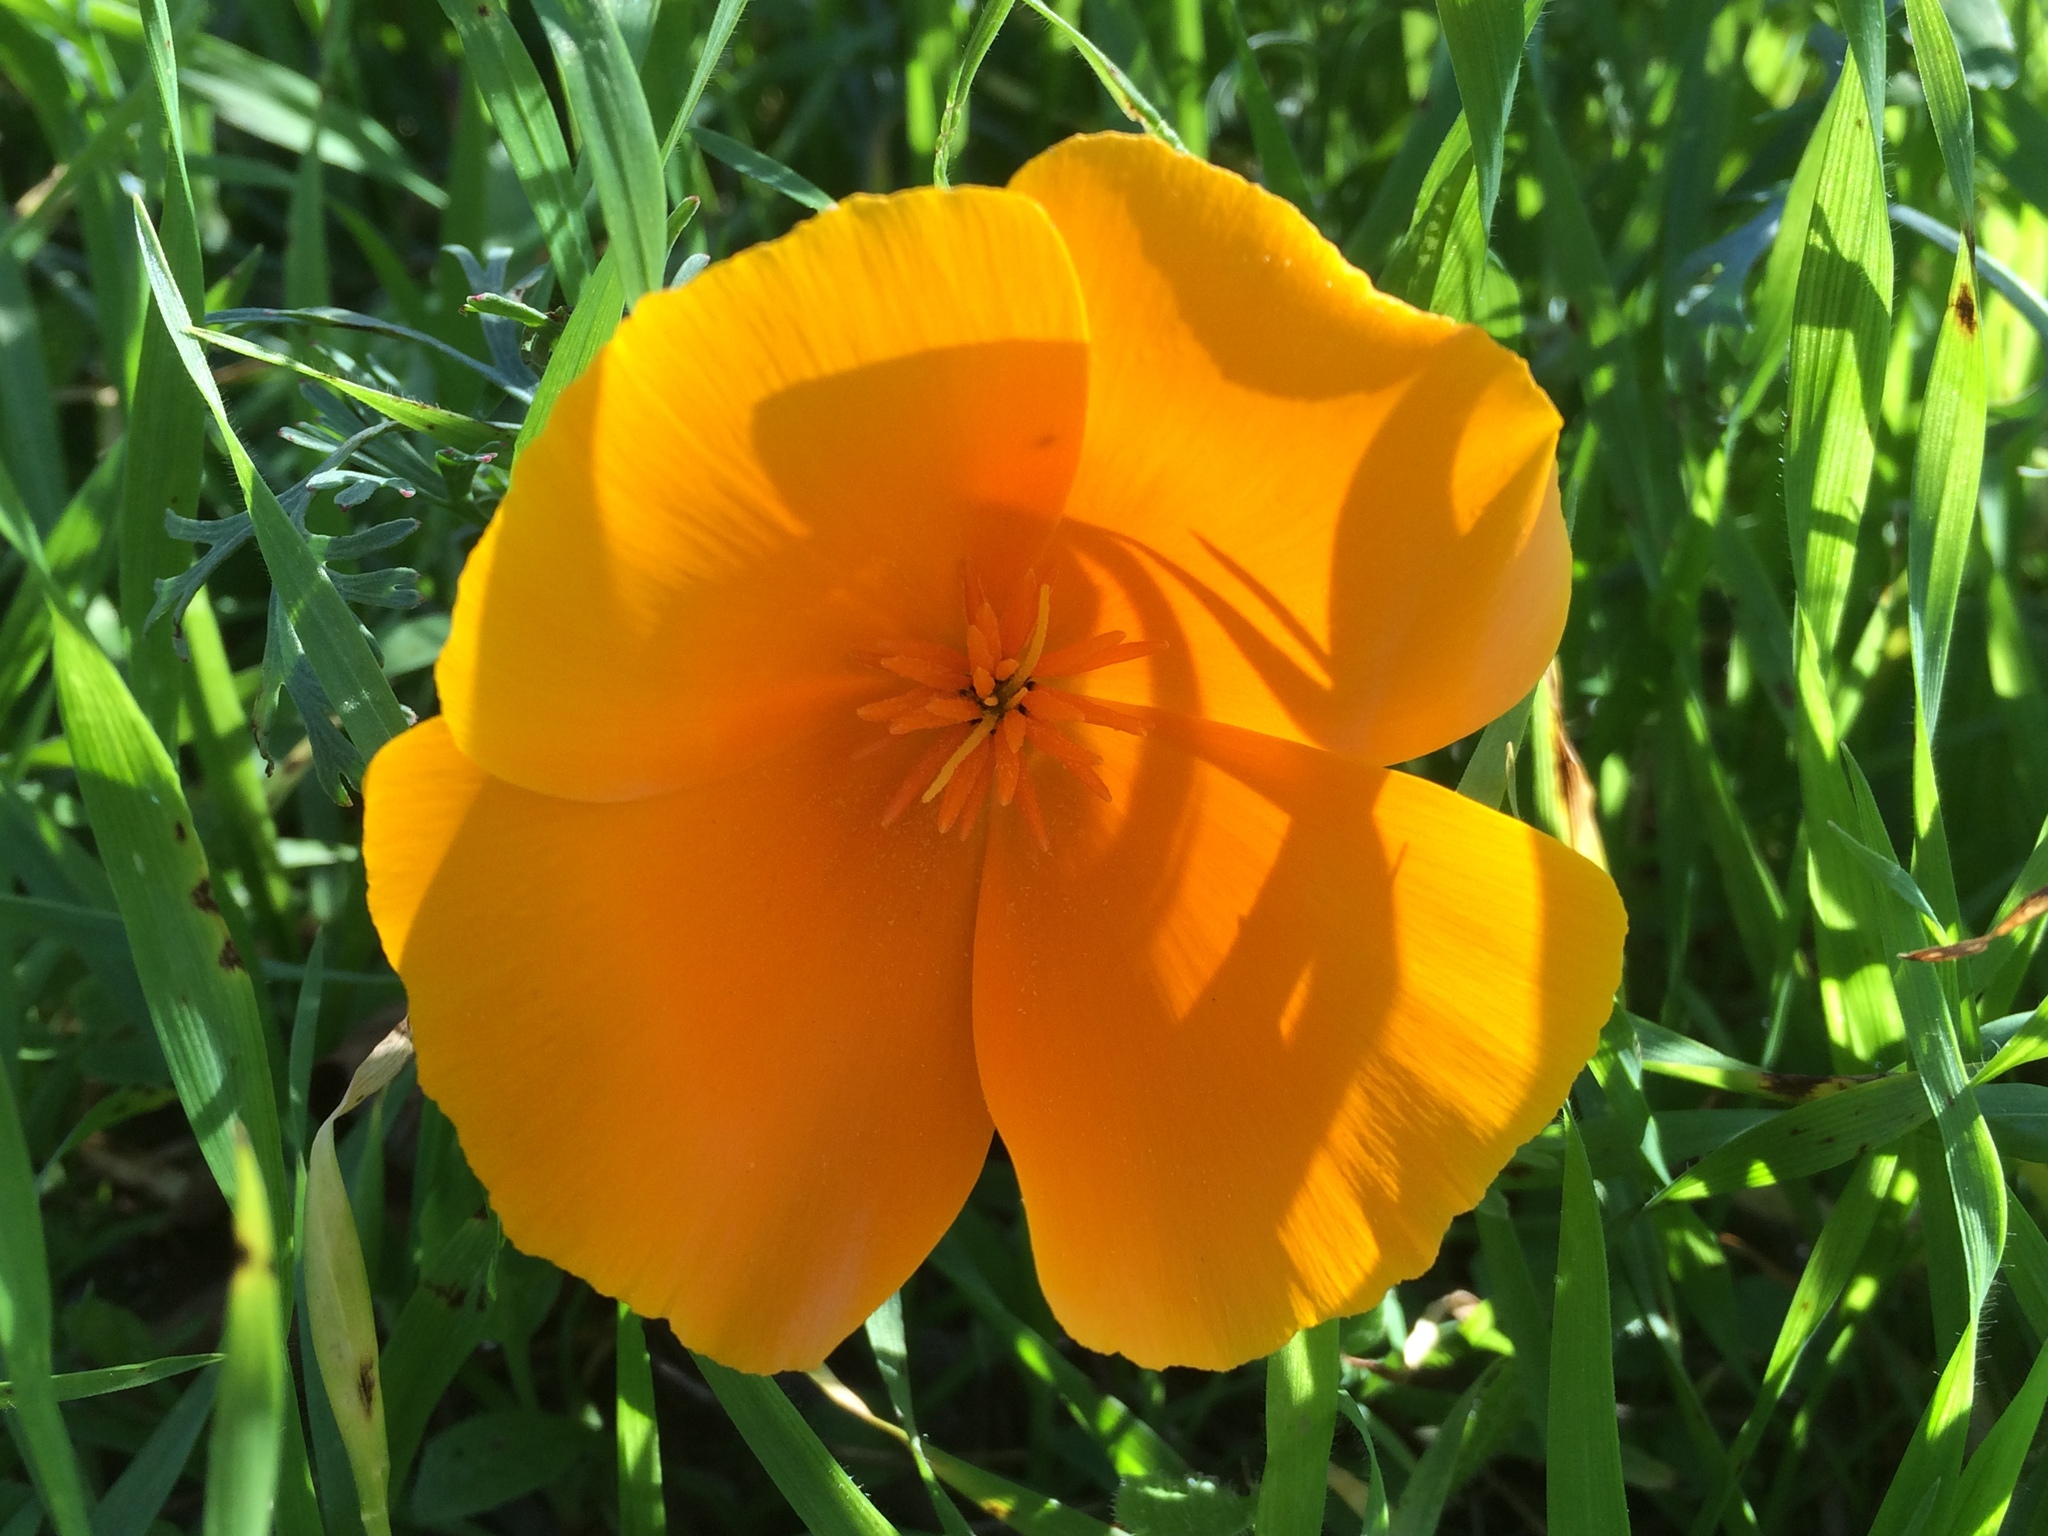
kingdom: Plantae
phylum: Tracheophyta
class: Magnoliopsida
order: Ranunculales
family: Papaveraceae
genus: Eschscholzia
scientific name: Eschscholzia californica
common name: California poppy
